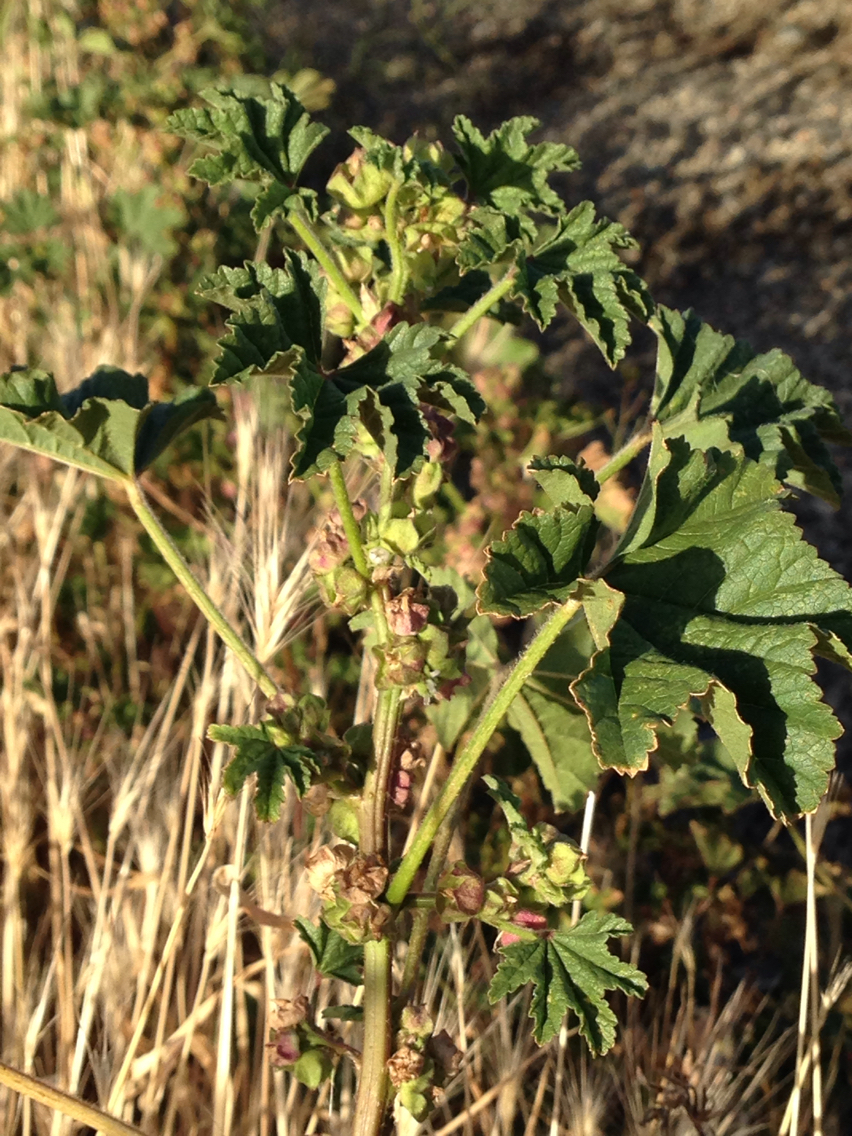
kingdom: Plantae
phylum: Tracheophyta
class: Magnoliopsida
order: Malvales
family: Malvaceae
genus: Malva
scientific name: Malva parviflora
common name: Least mallow
